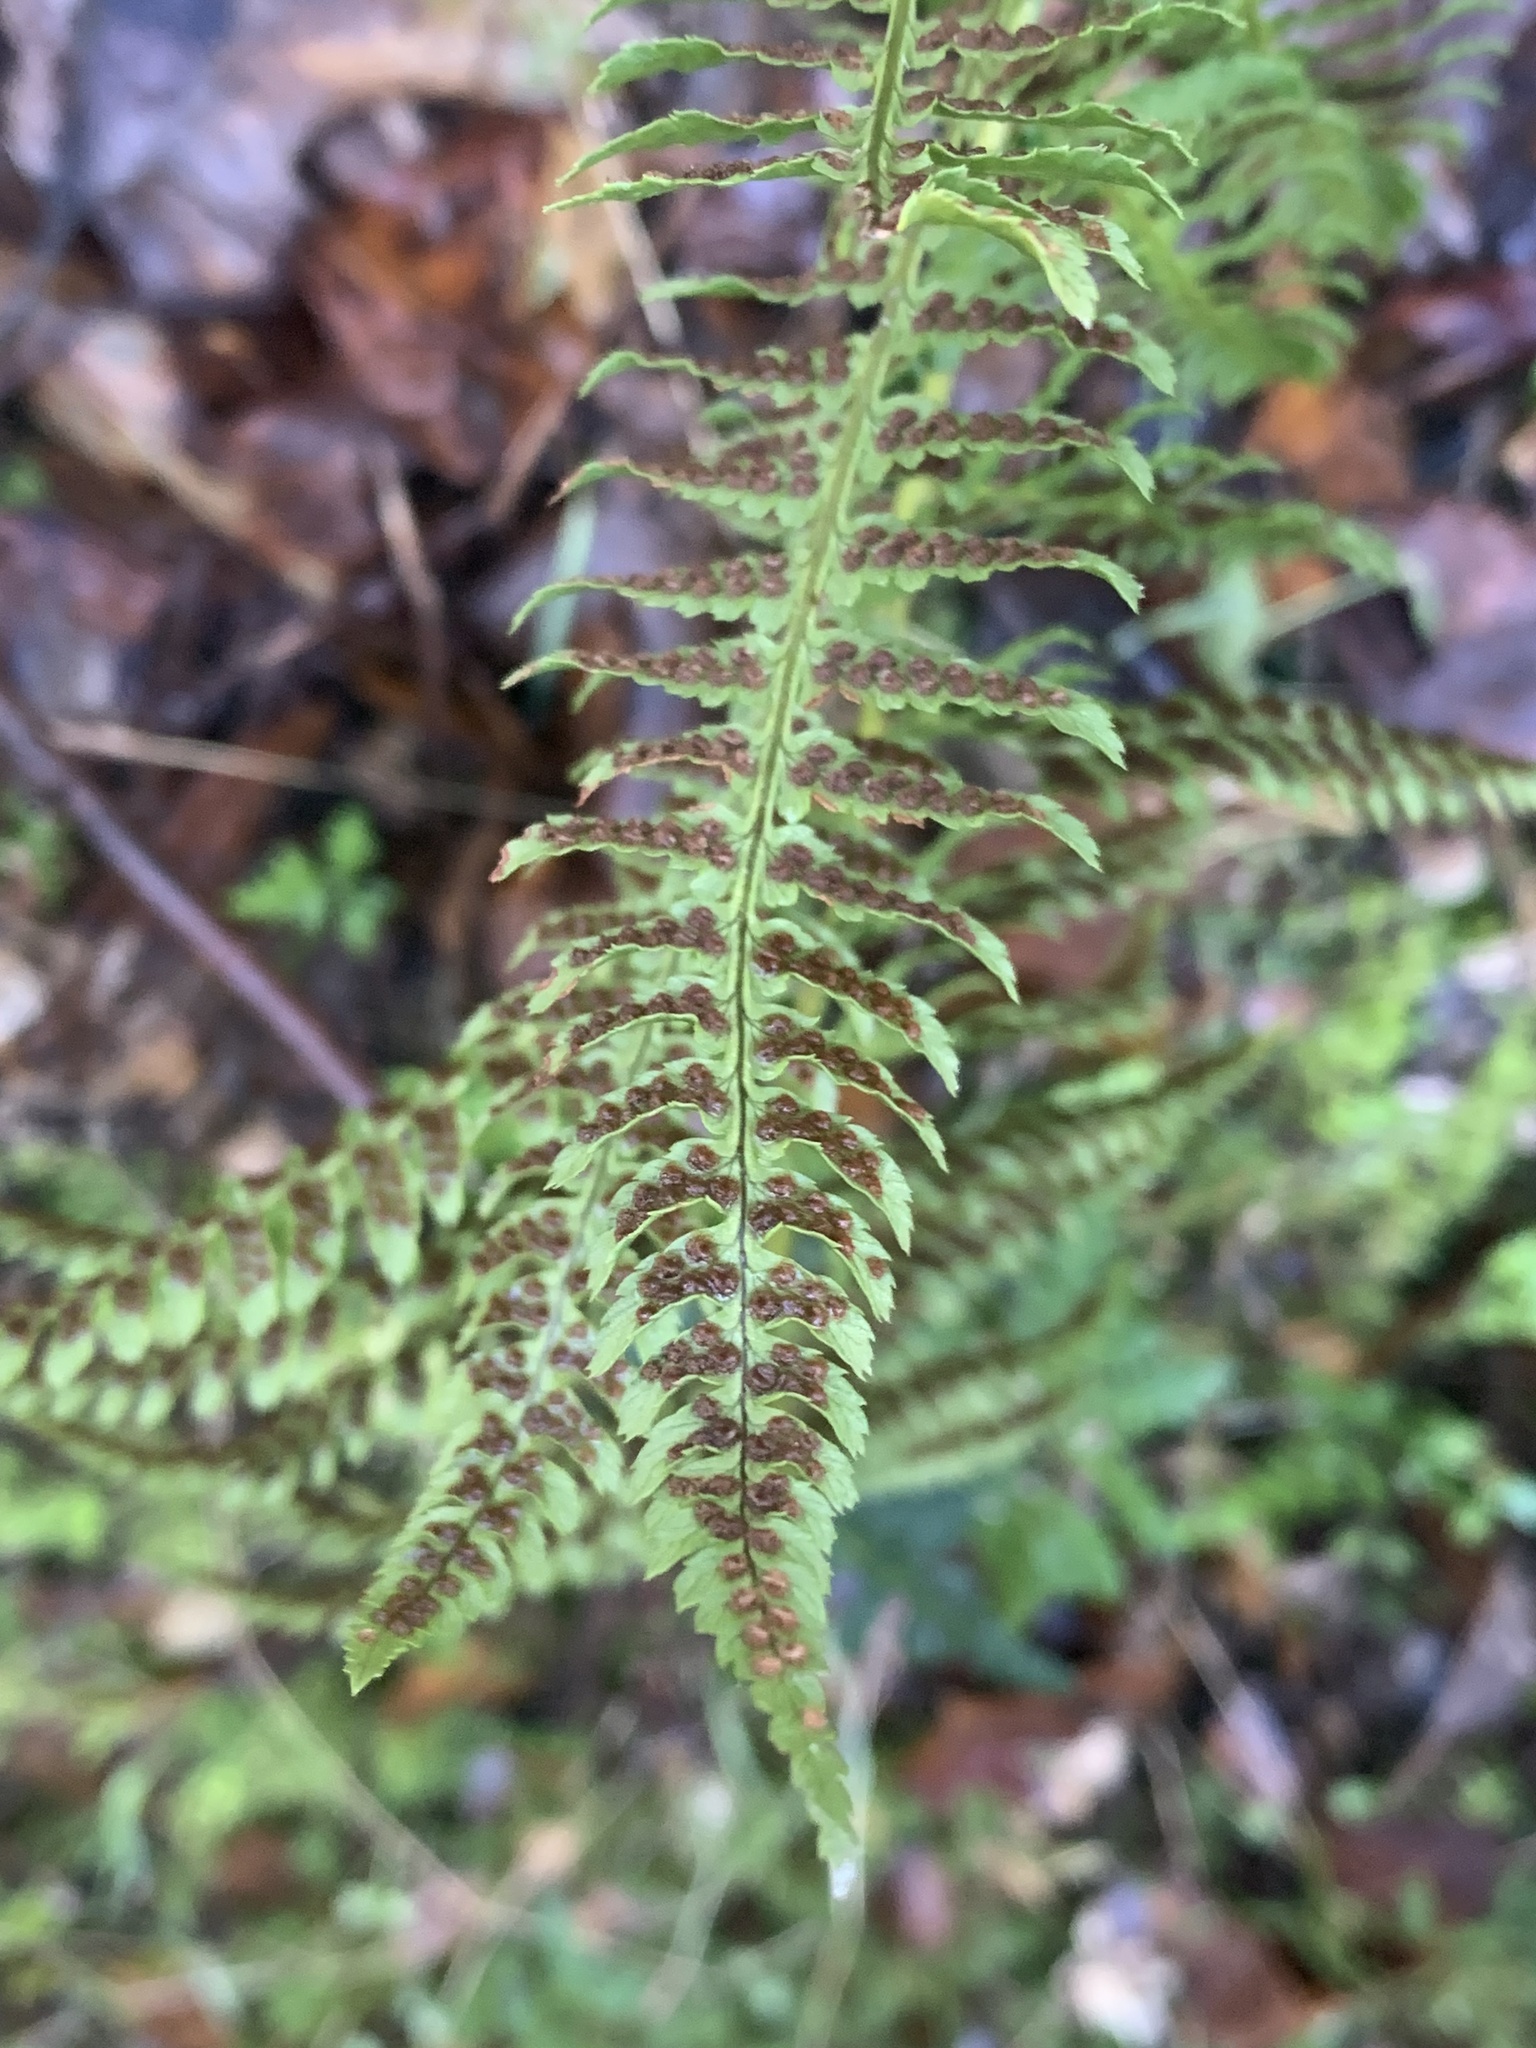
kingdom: Plantae
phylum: Tracheophyta
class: Polypodiopsida
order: Polypodiales
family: Dryopteridaceae
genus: Dryopteris
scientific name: Dryopteris arguta
